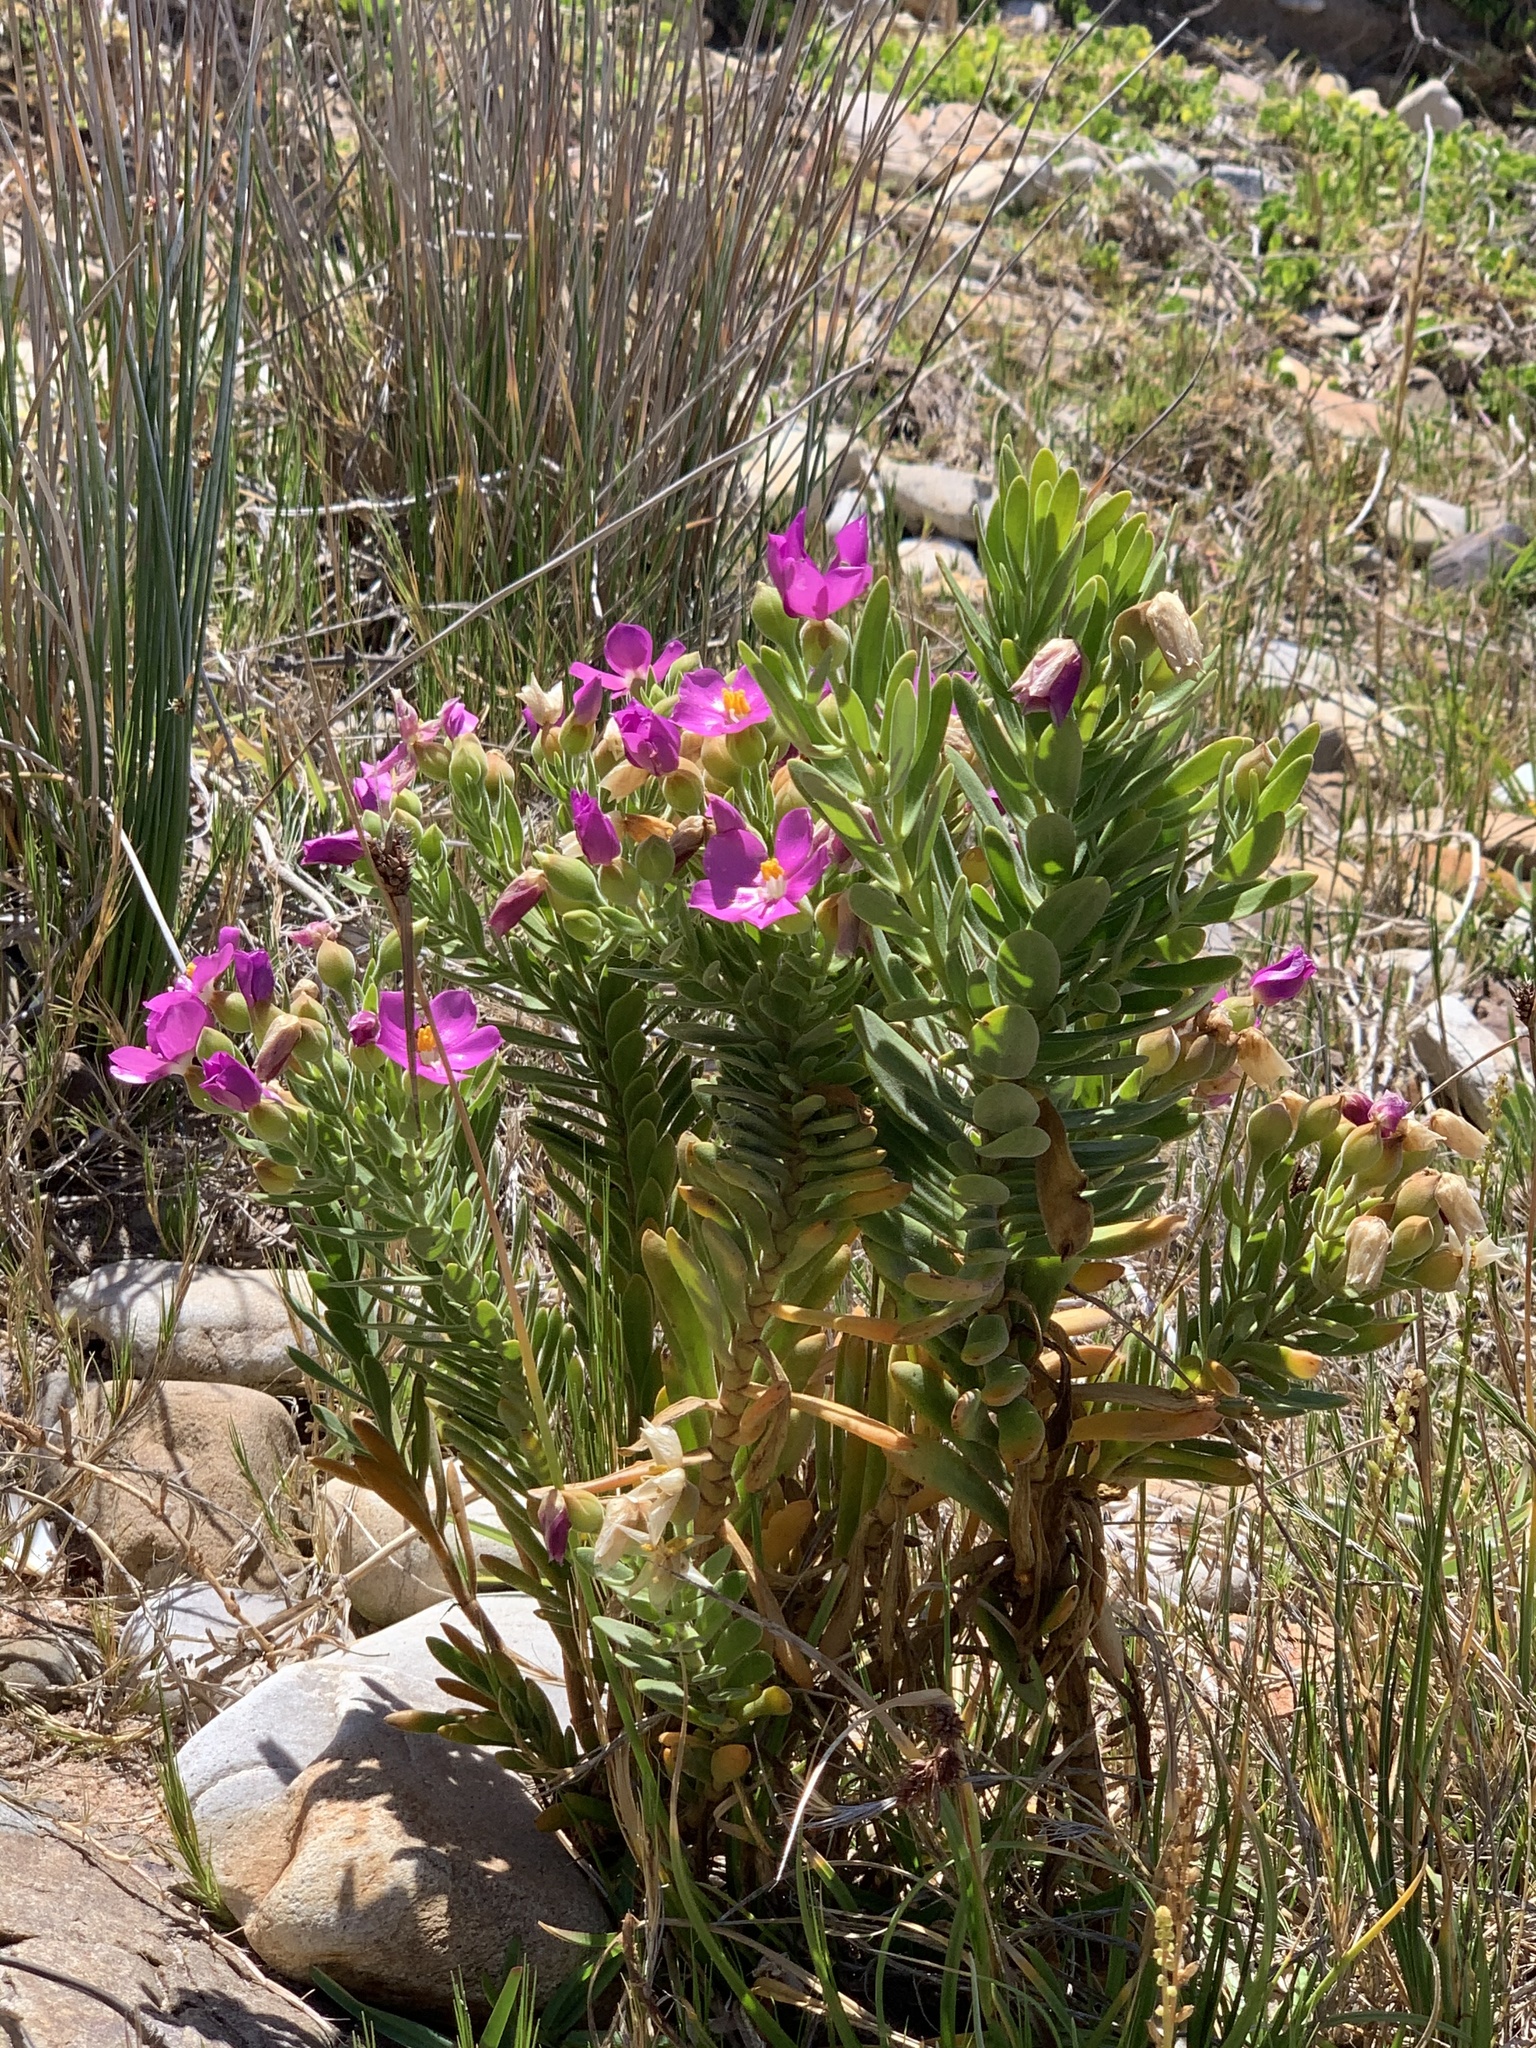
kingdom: Plantae
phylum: Tracheophyta
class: Magnoliopsida
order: Gentianales
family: Gentianaceae
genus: Orphium
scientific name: Orphium frutescens
